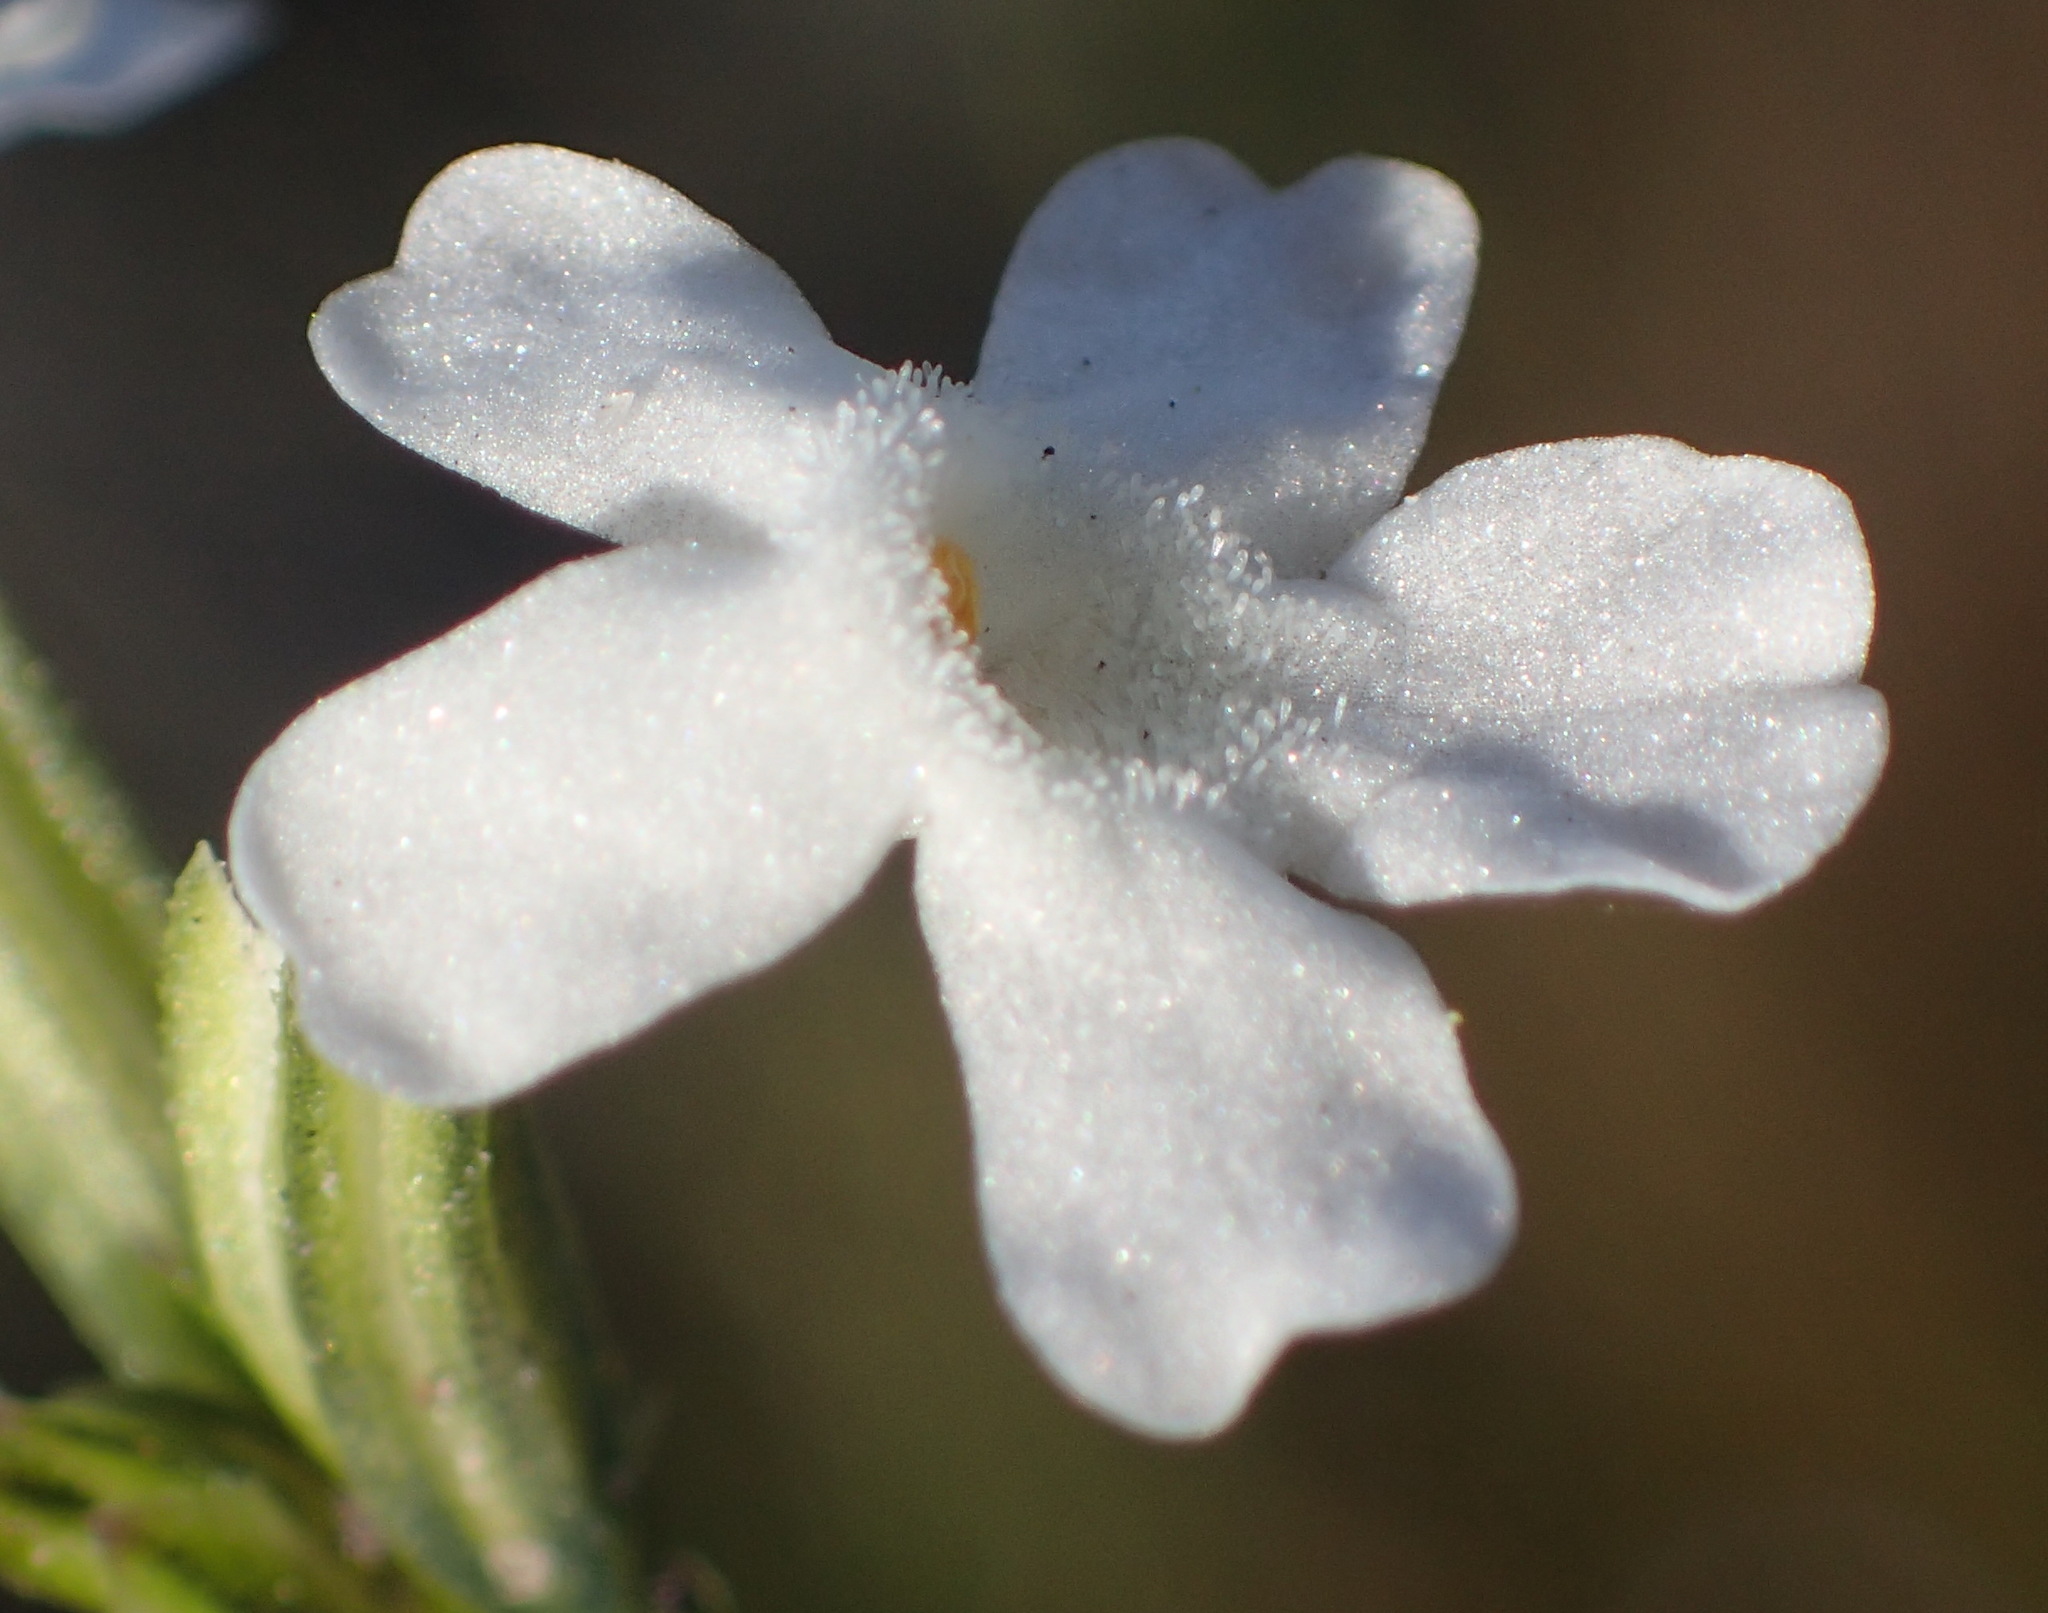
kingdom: Plantae
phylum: Tracheophyta
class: Magnoliopsida
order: Lamiales
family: Verbenaceae
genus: Chascanum
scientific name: Chascanum cernuum
